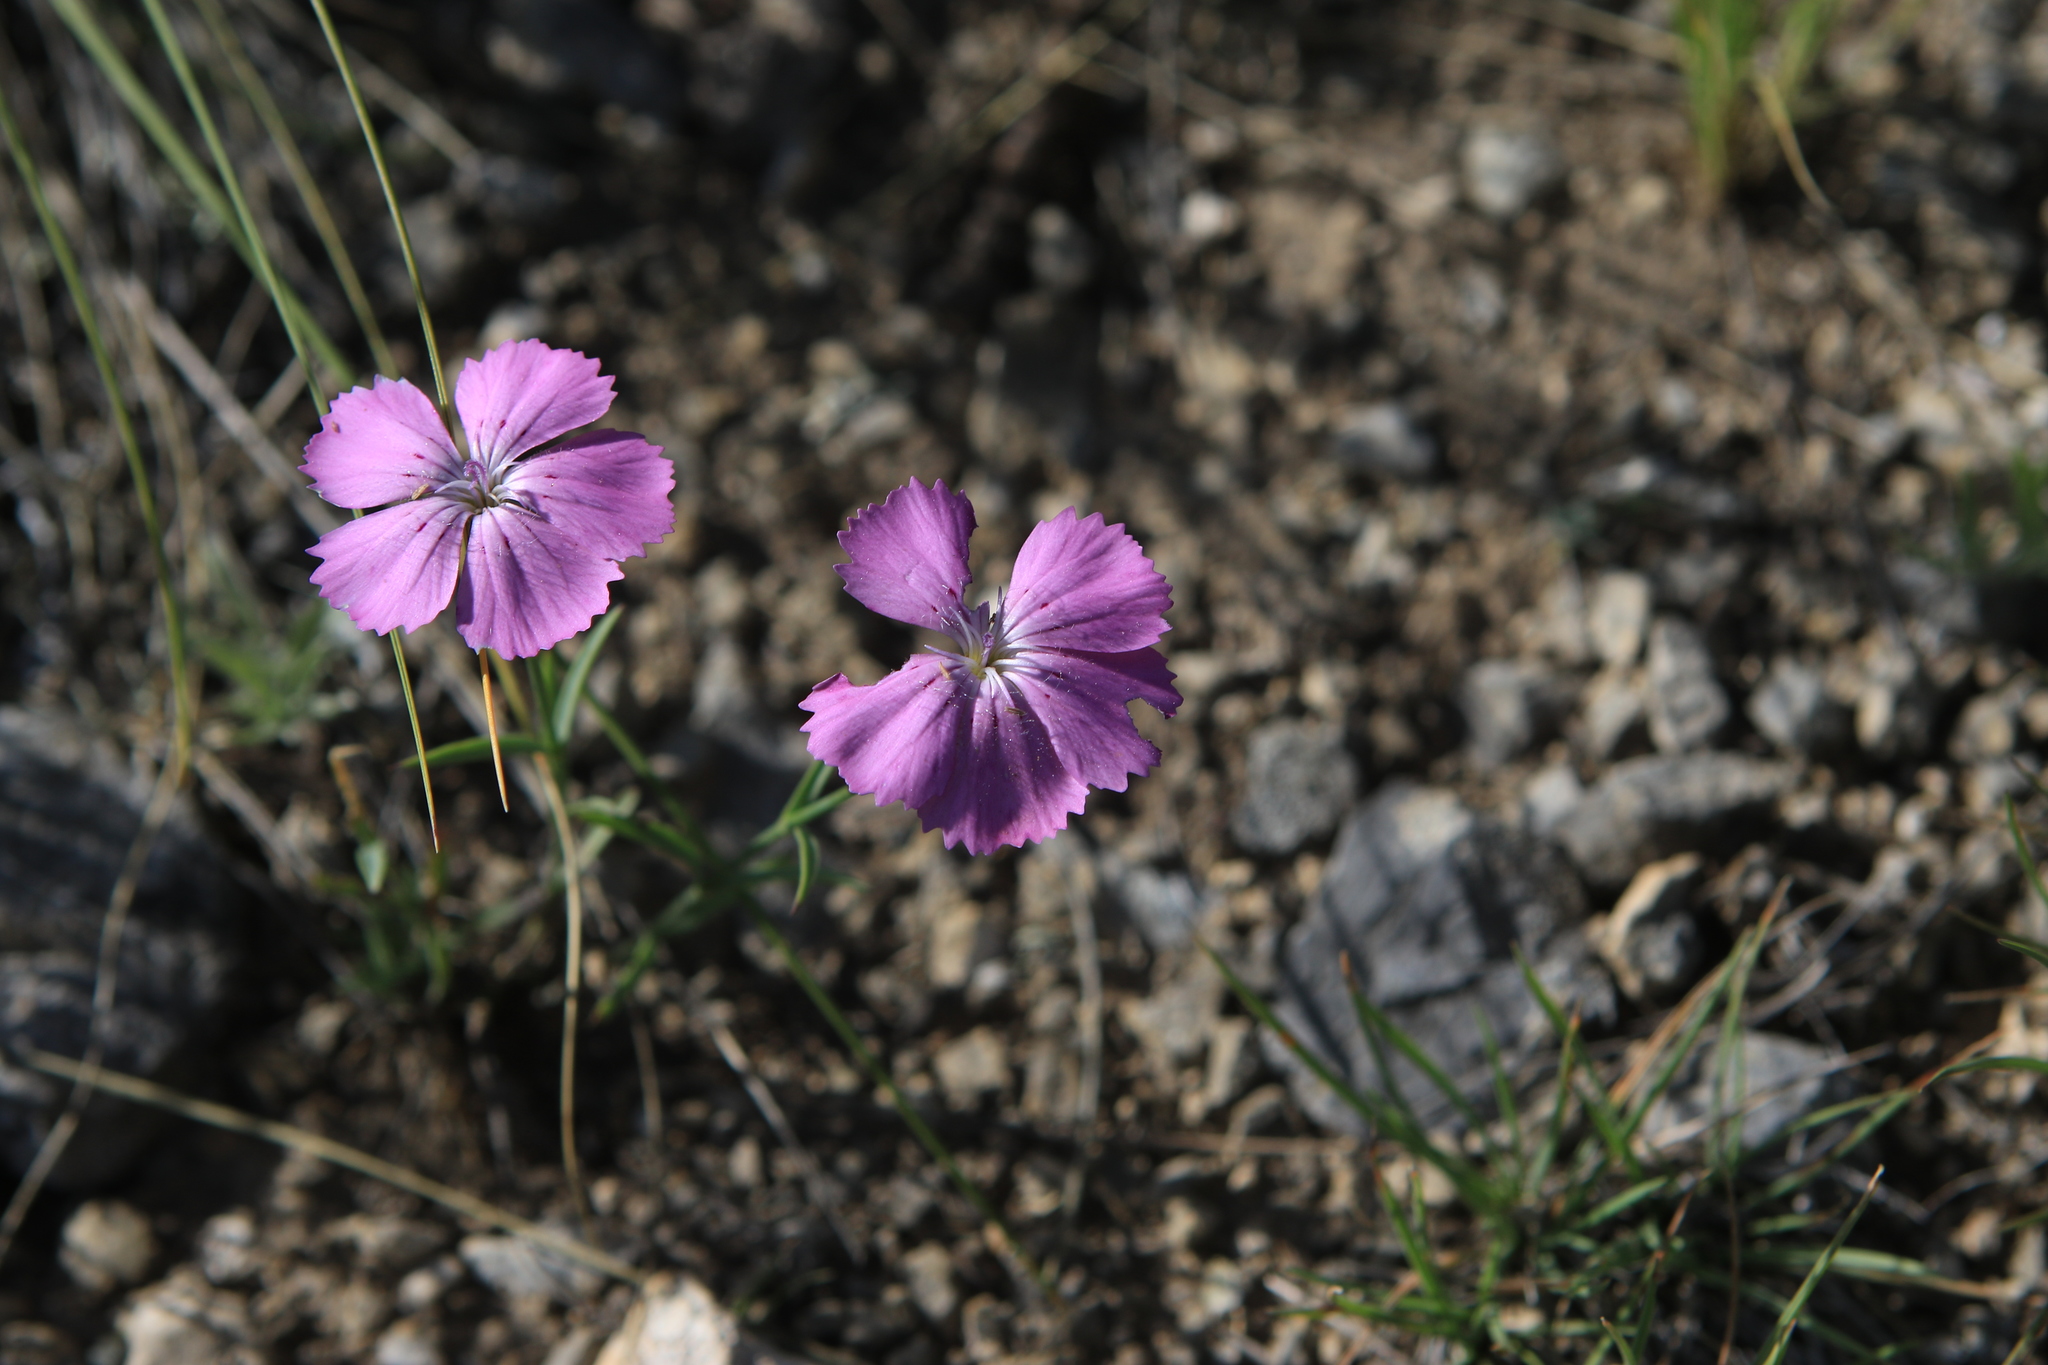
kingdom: Plantae
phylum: Tracheophyta
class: Magnoliopsida
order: Caryophyllales
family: Caryophyllaceae
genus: Dianthus
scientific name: Dianthus chinensis
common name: Rainbow pink
